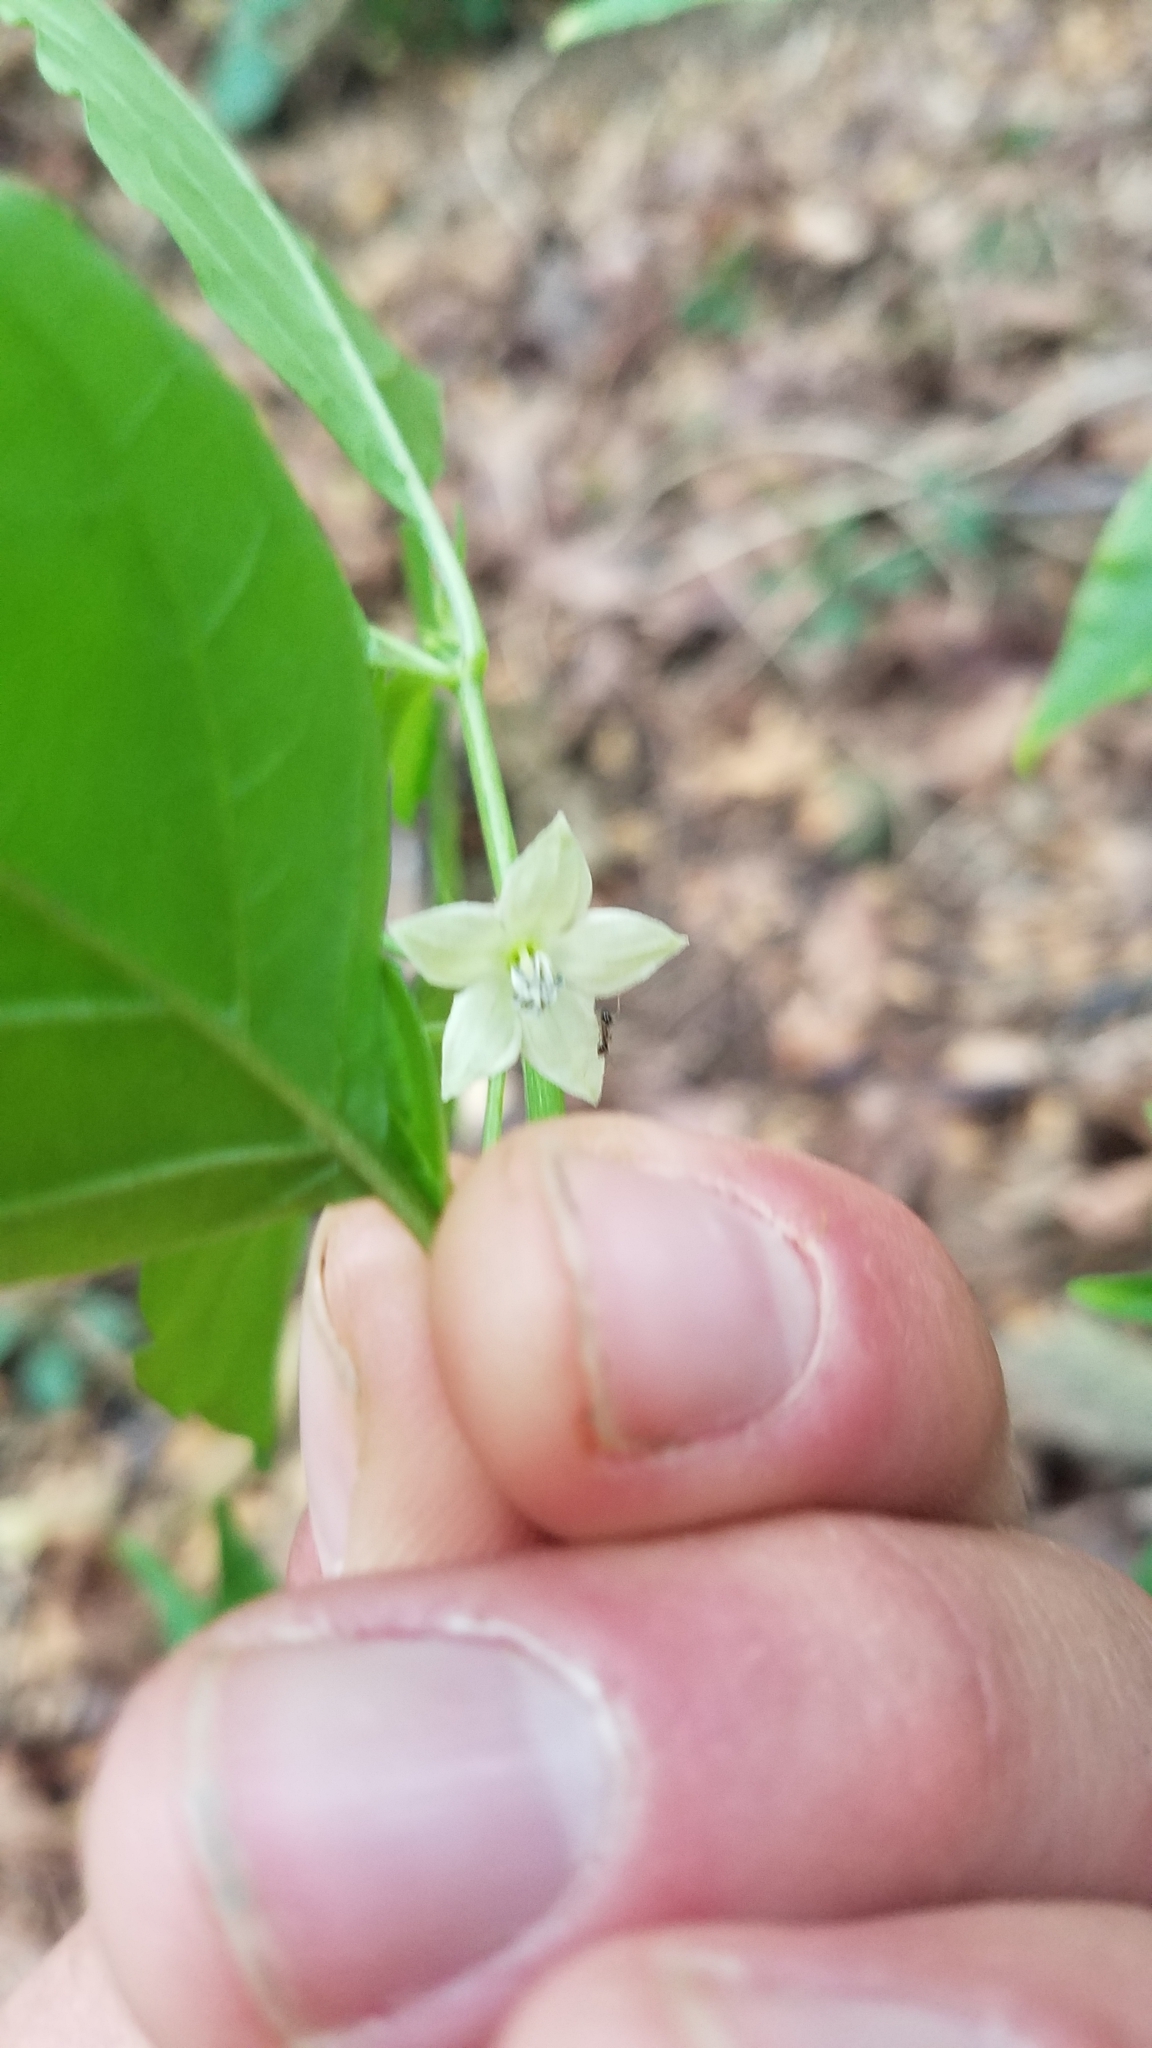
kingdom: Plantae
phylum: Tracheophyta
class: Magnoliopsida
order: Solanales
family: Solanaceae
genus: Capsicum
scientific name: Capsicum annuum
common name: Sweet pepper
